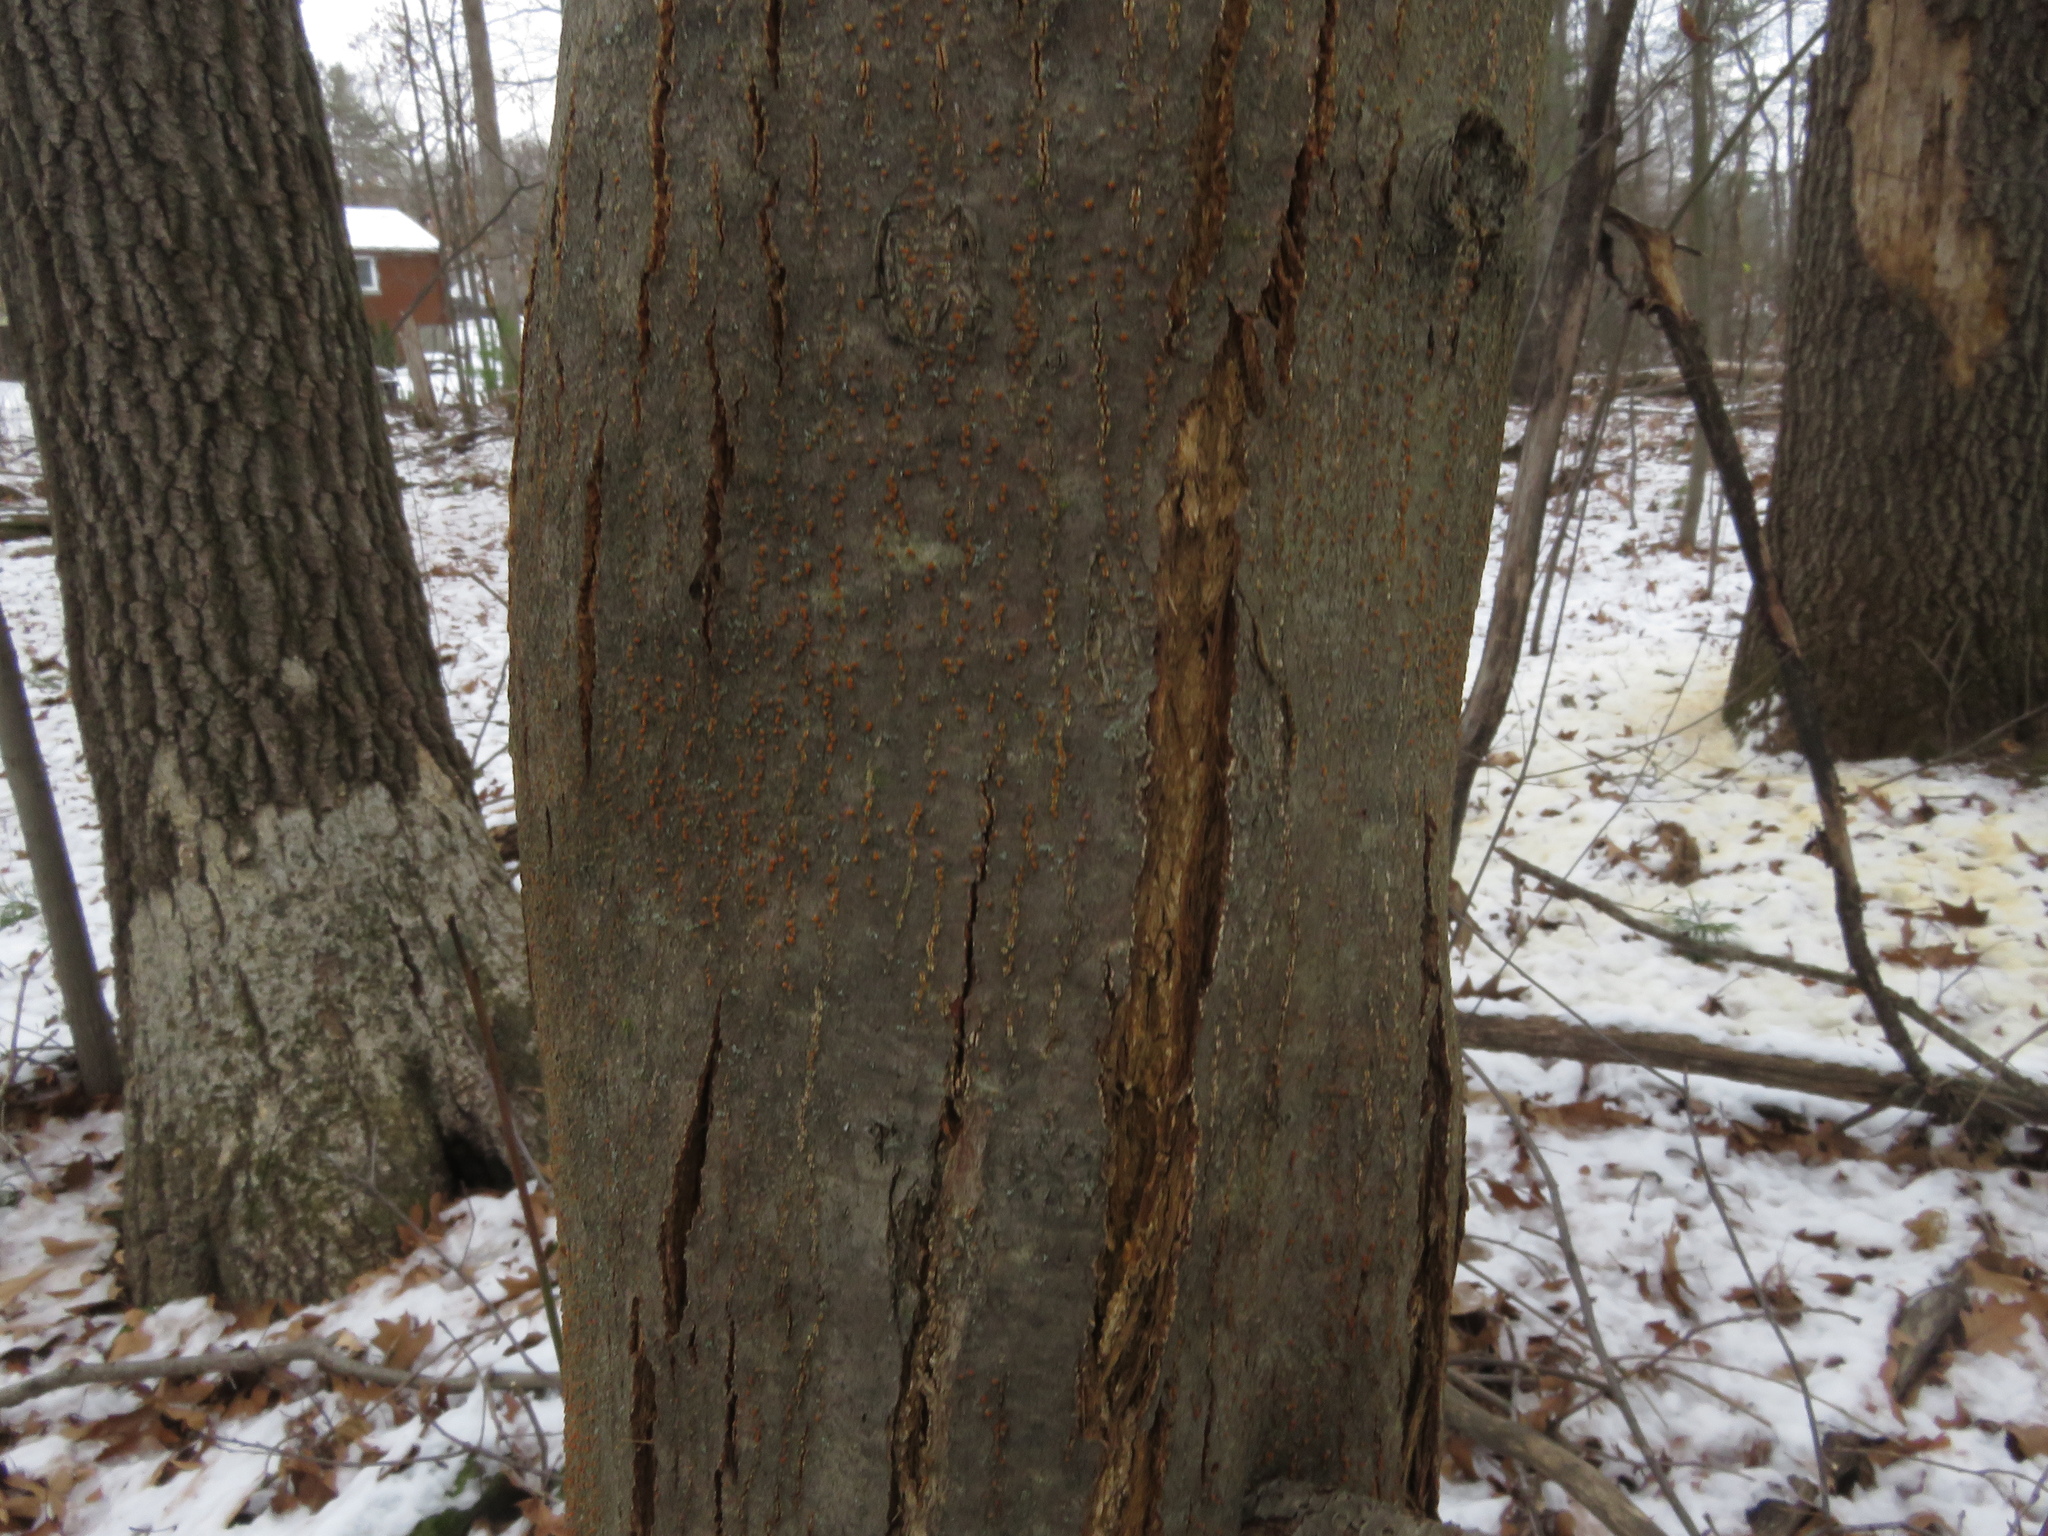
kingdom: Plantae
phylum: Tracheophyta
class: Magnoliopsida
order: Fagales
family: Fagaceae
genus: Castanea
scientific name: Castanea dentata
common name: American chestnut
